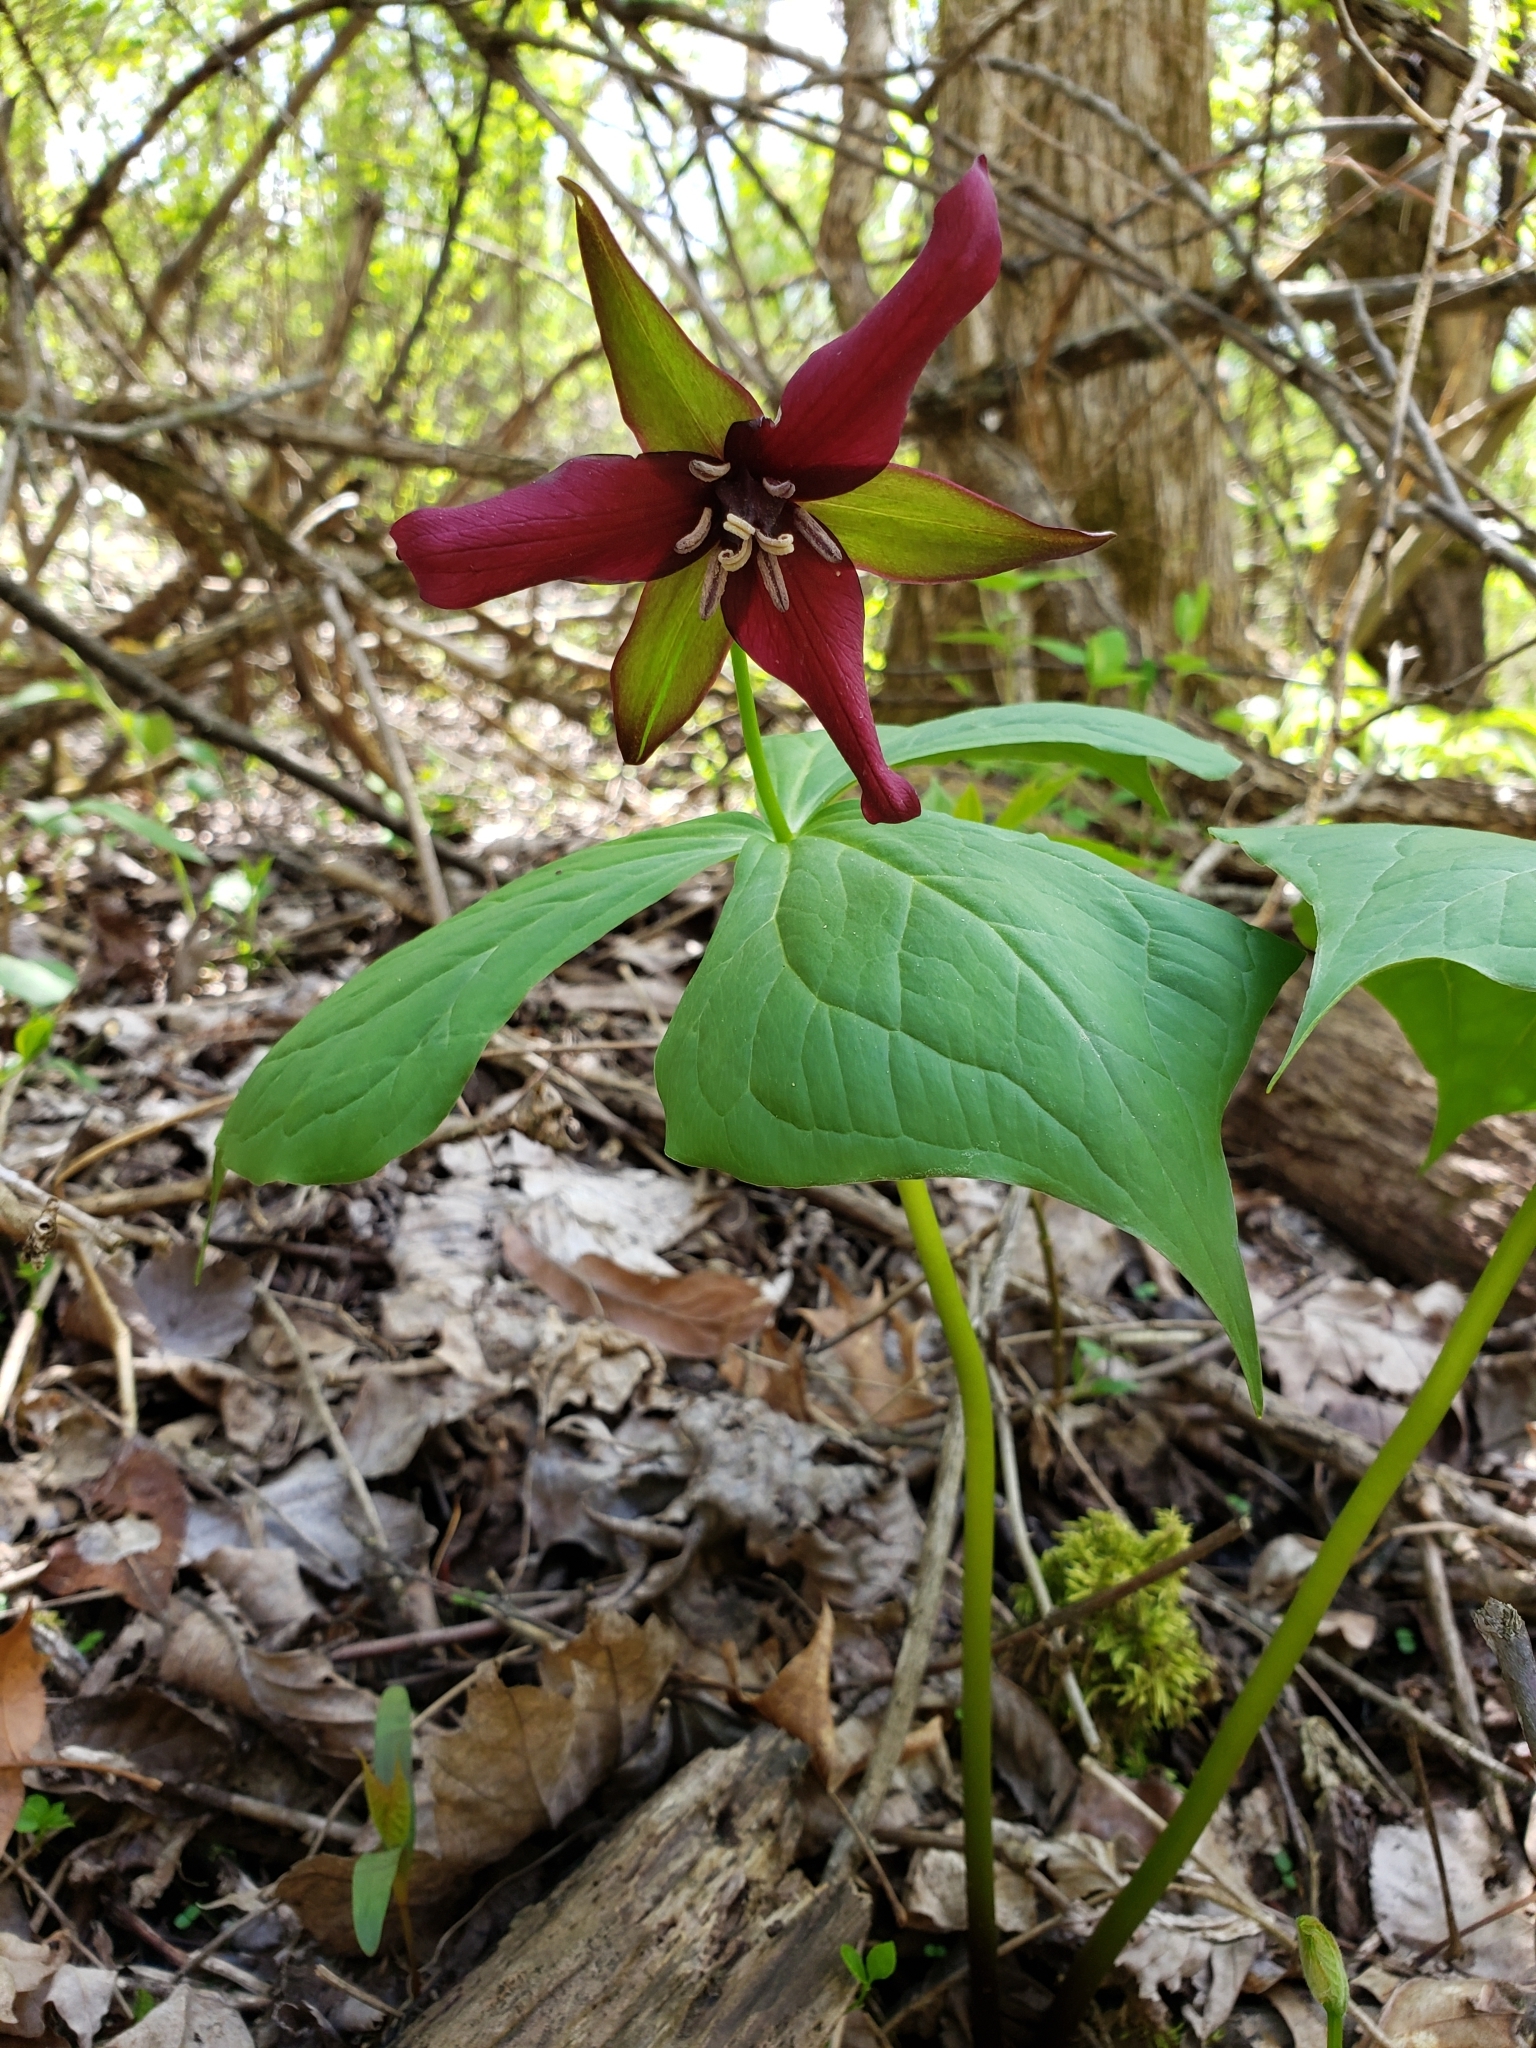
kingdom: Plantae
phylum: Tracheophyta
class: Liliopsida
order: Liliales
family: Melanthiaceae
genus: Trillium
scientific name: Trillium erectum
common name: Purple trillium
